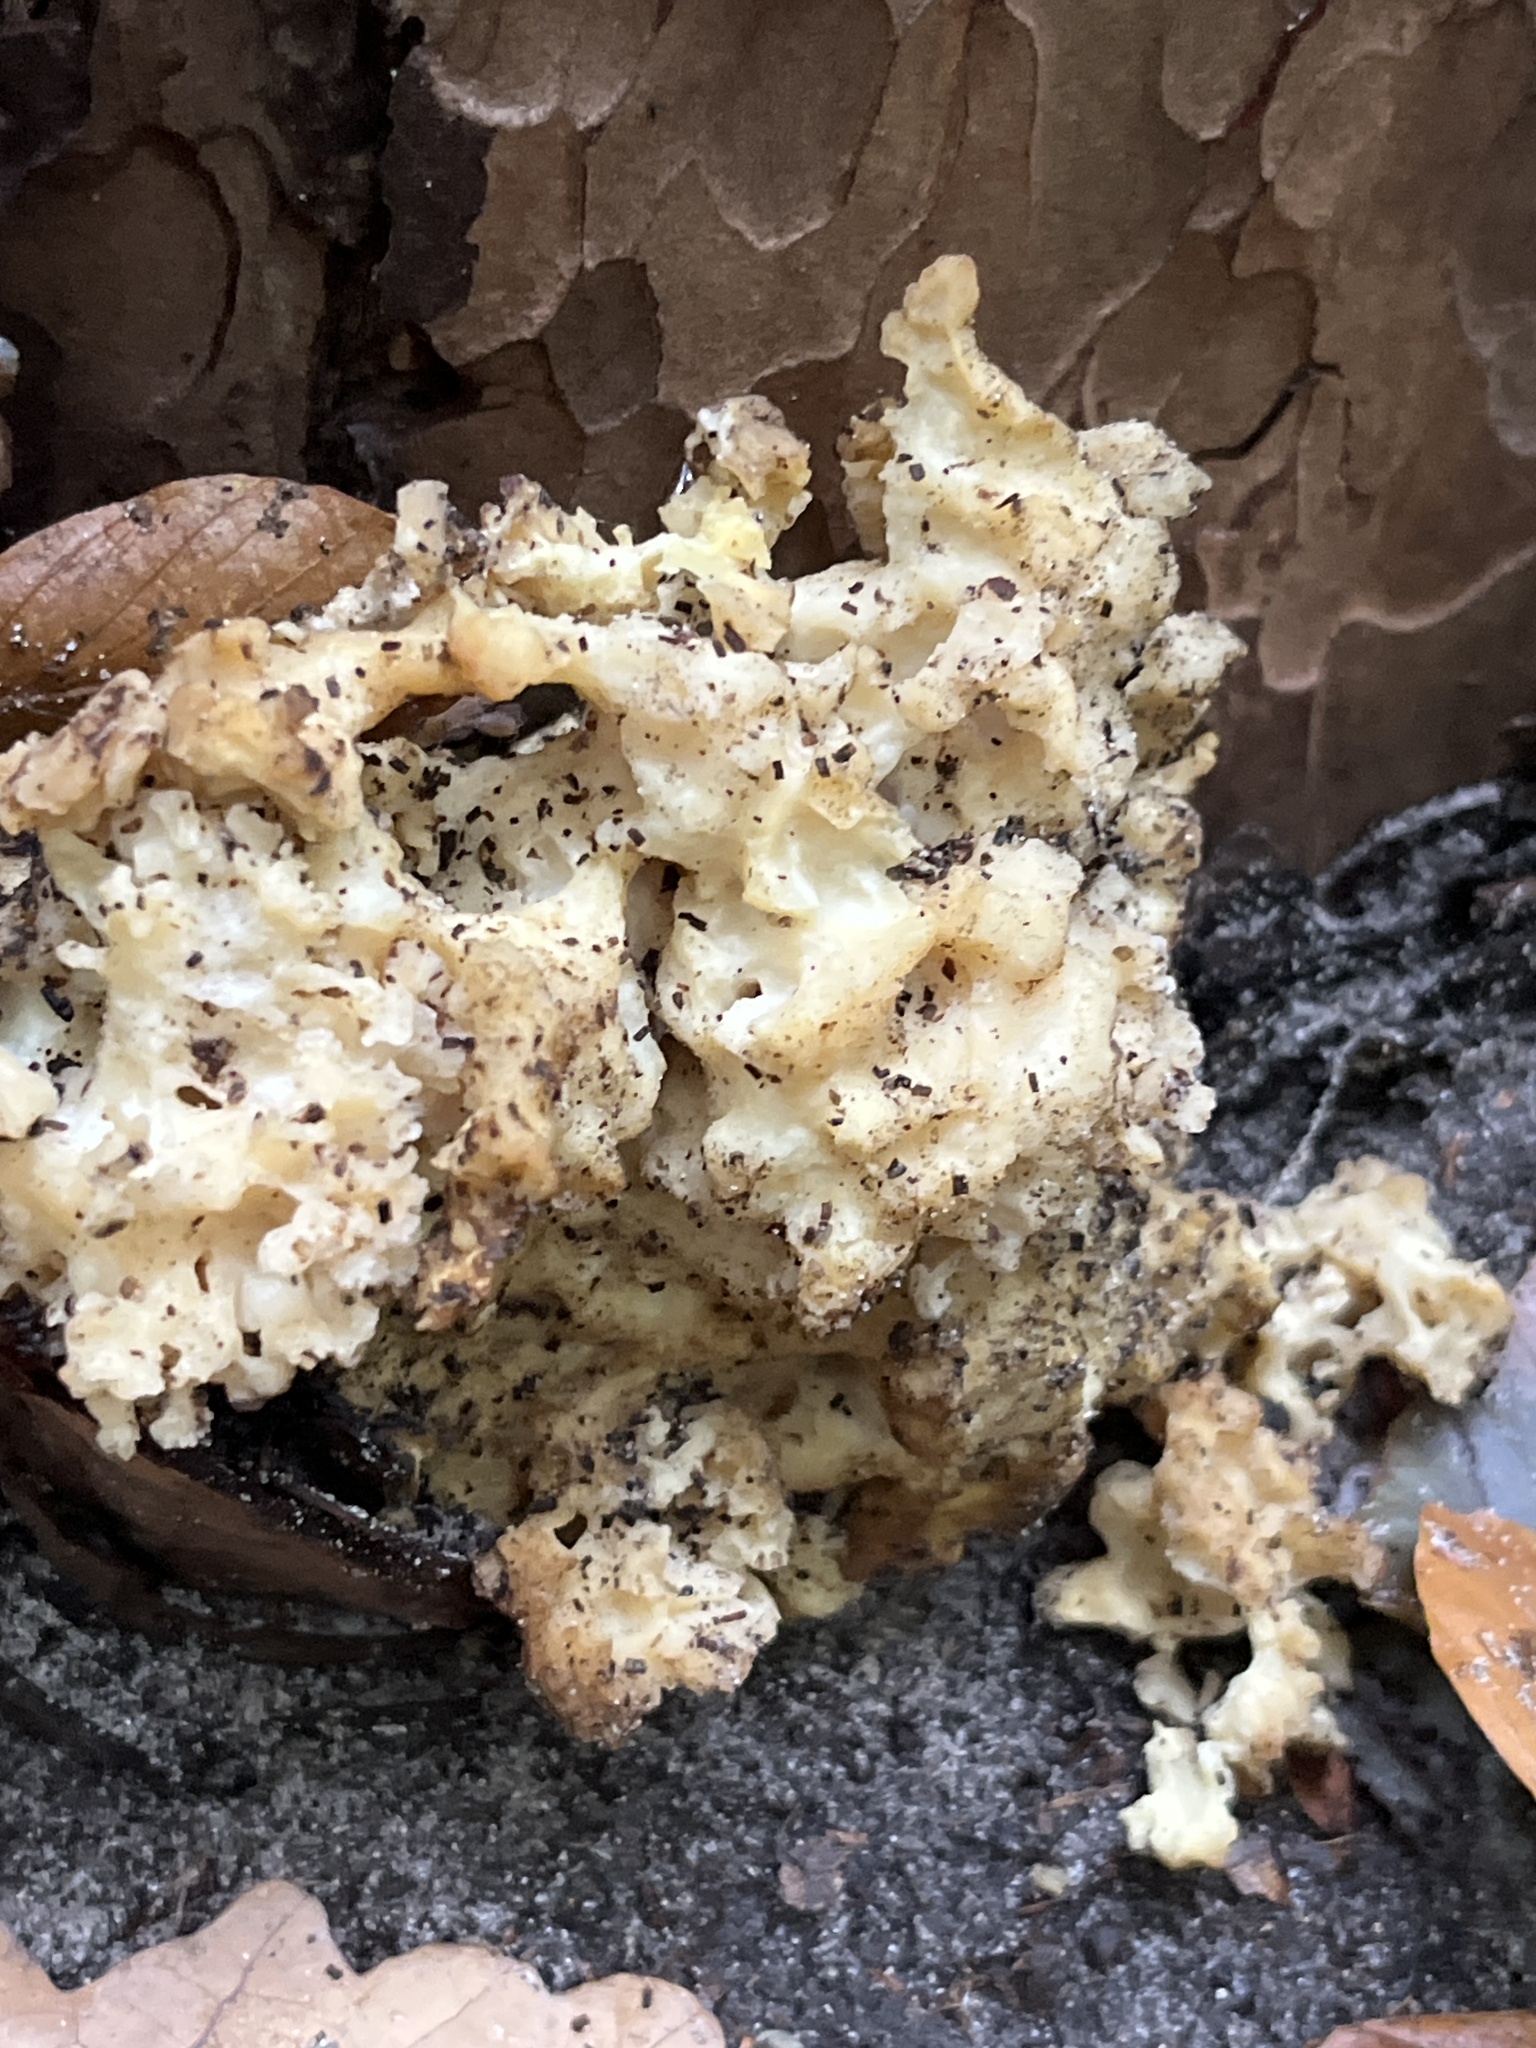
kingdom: Fungi
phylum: Basidiomycota
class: Agaricomycetes
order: Polyporales
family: Sparassidaceae
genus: Sparassis
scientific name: Sparassis crispa
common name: Brain fungus
